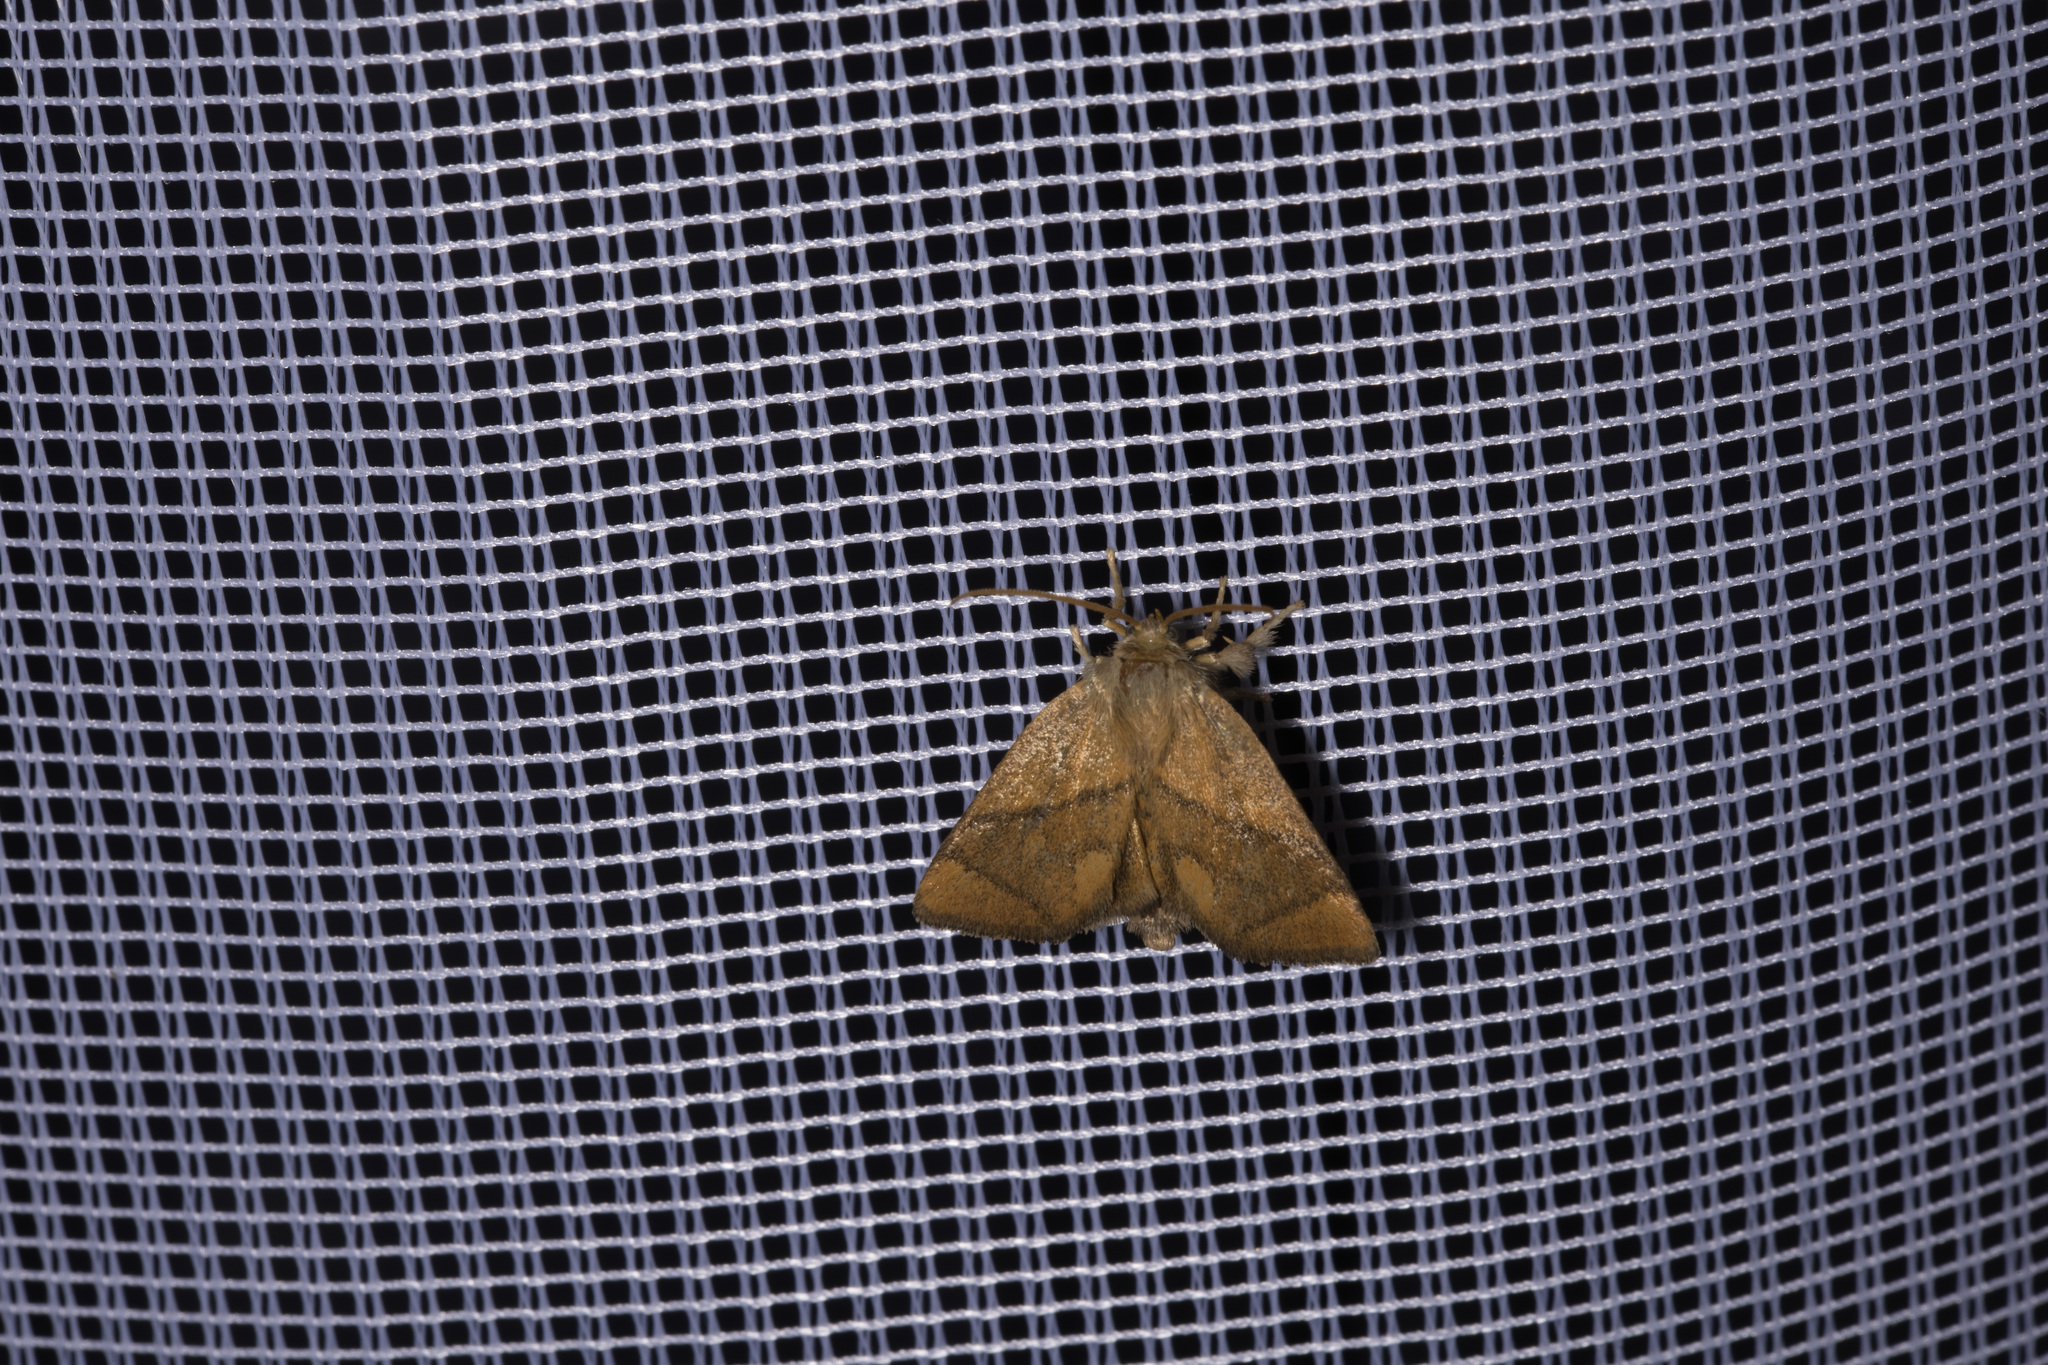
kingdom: Animalia
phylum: Arthropoda
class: Insecta
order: Lepidoptera
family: Limacodidae
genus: Apoda
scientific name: Apoda limacodes
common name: Festoon
